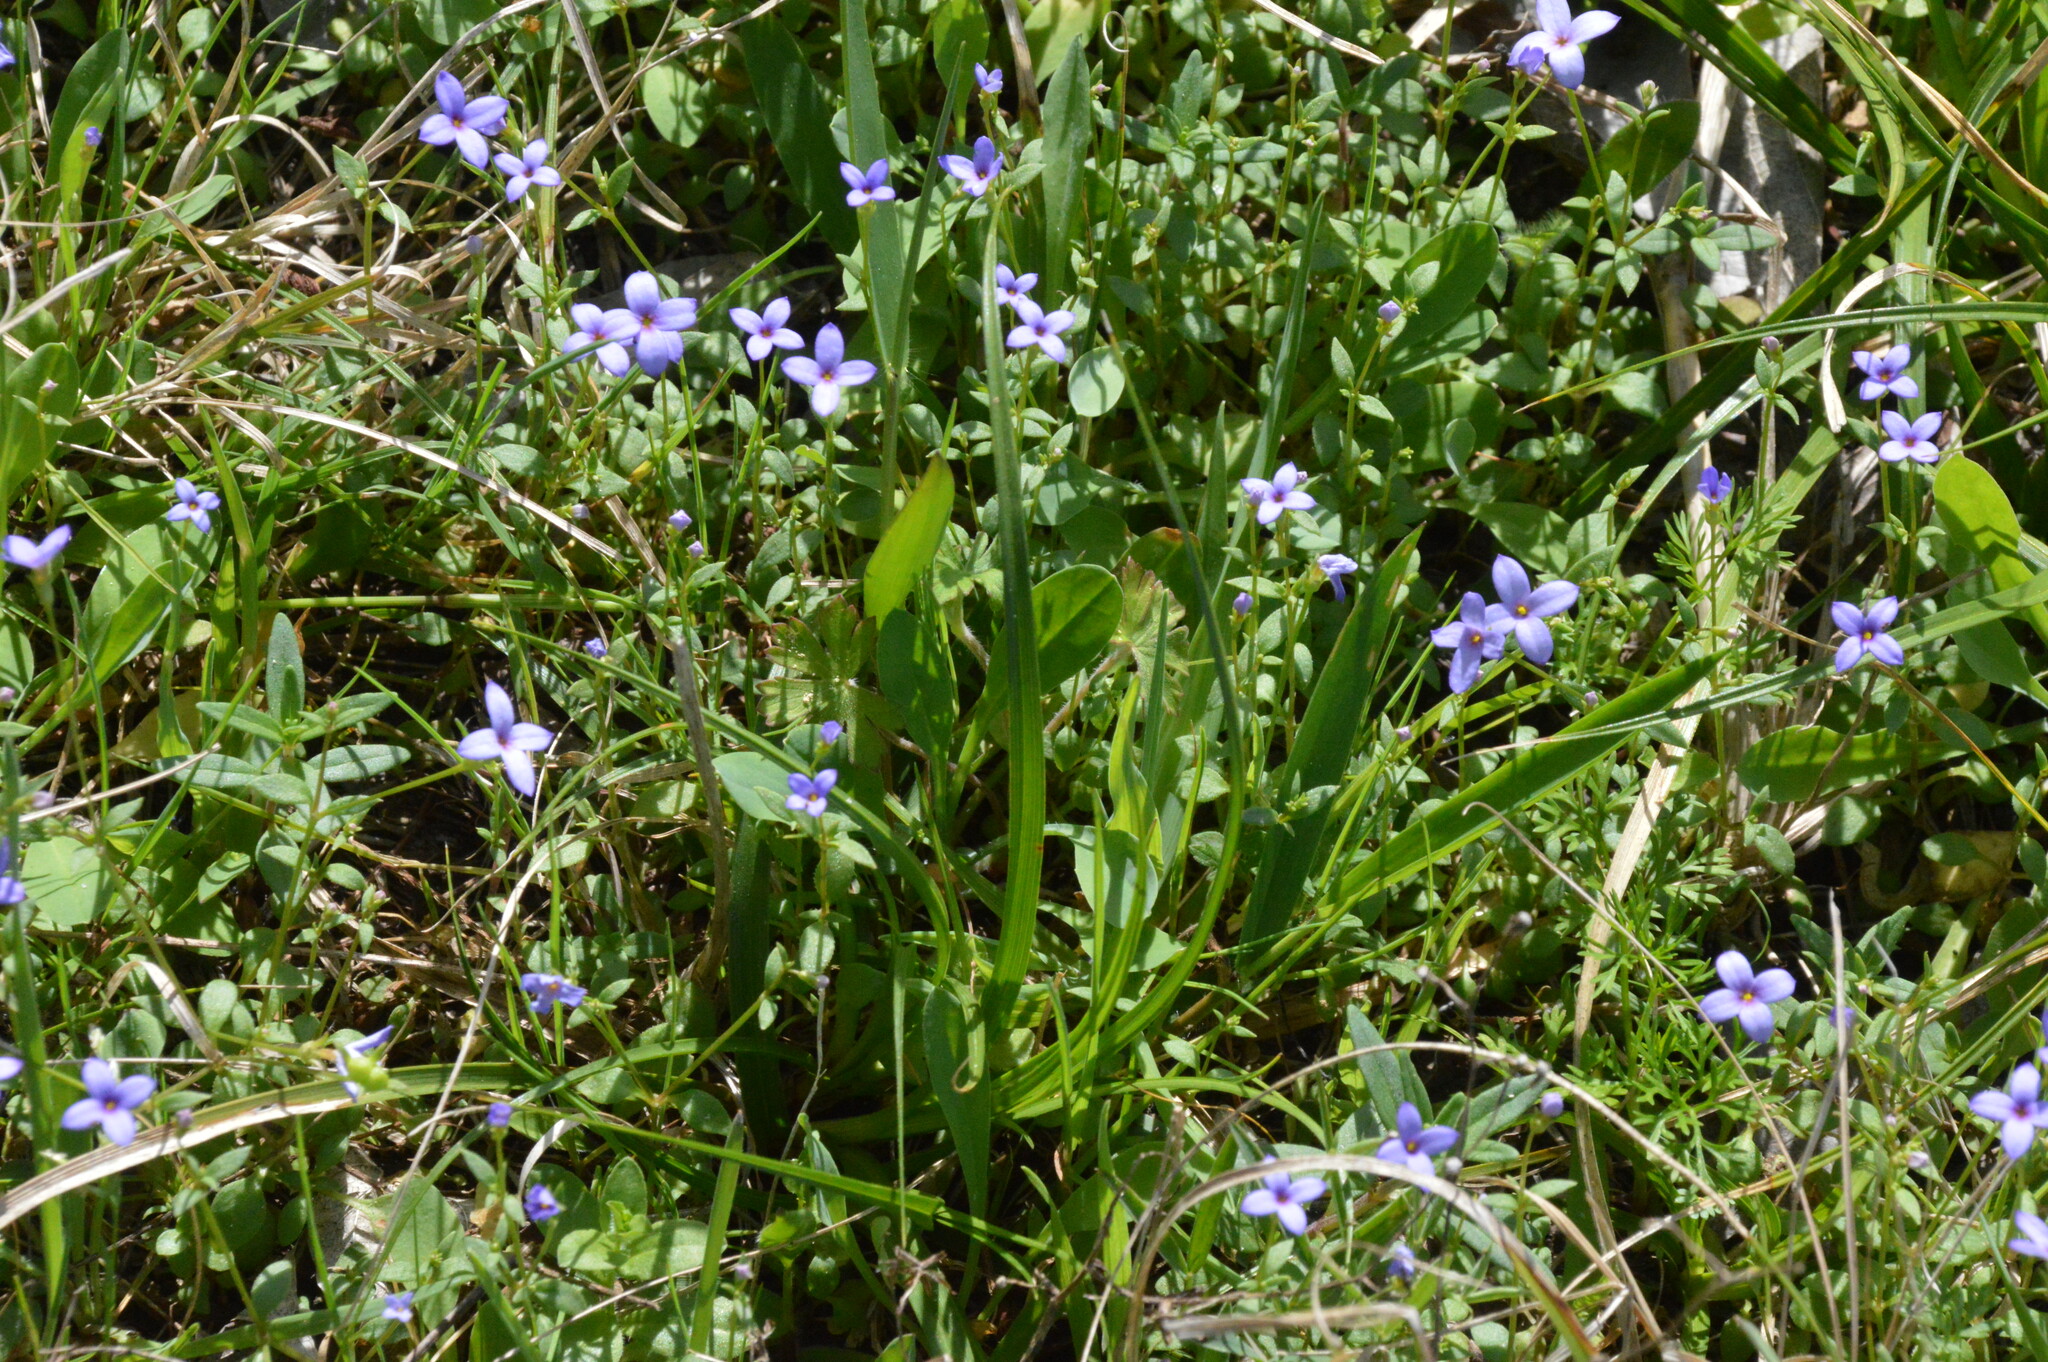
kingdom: Plantae
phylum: Tracheophyta
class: Magnoliopsida
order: Gentianales
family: Rubiaceae
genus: Houstonia
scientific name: Houstonia pusilla
